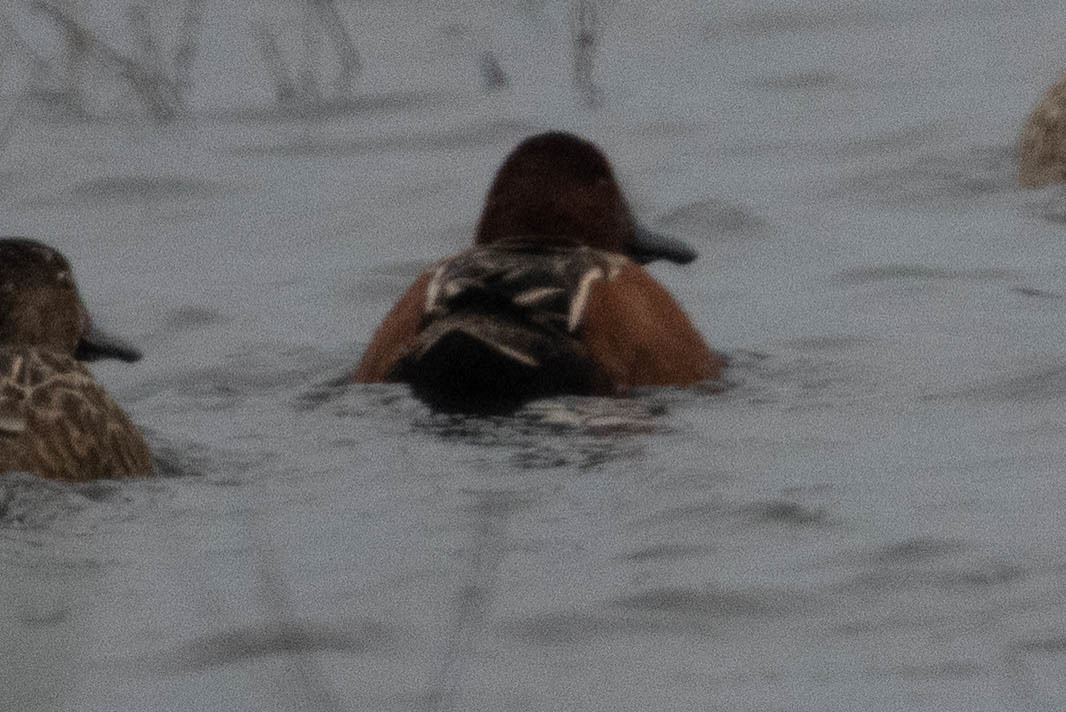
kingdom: Animalia
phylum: Chordata
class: Aves
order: Anseriformes
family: Anatidae
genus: Spatula
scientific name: Spatula cyanoptera
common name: Cinnamon teal
